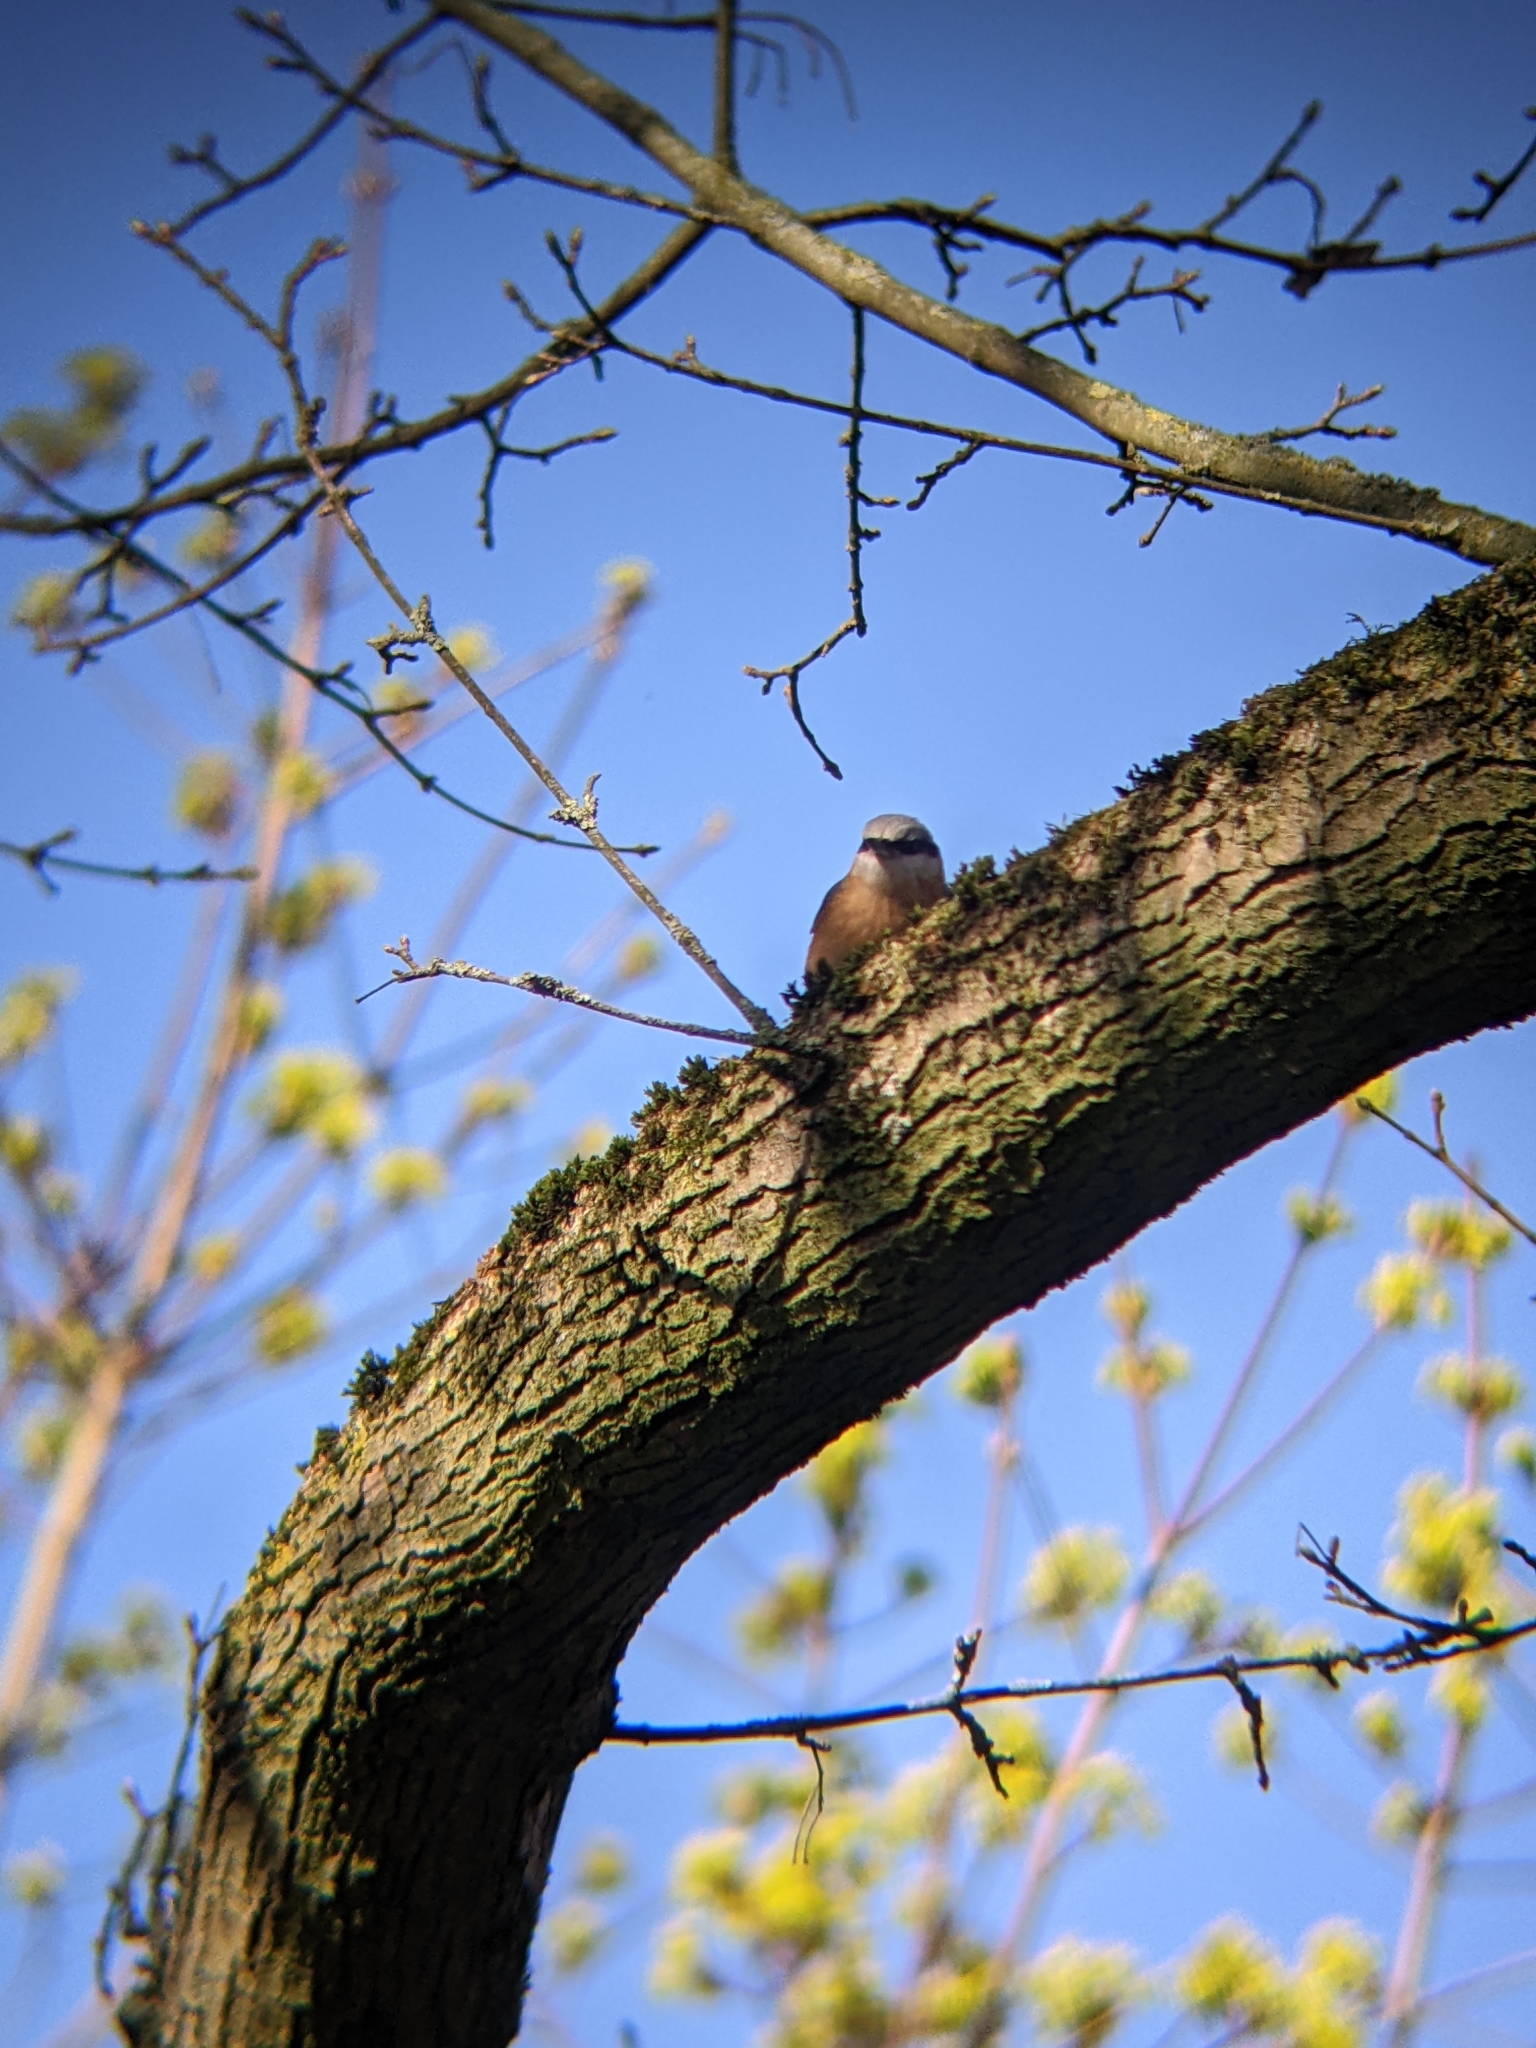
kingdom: Animalia
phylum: Chordata
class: Aves
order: Passeriformes
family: Sittidae
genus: Sitta
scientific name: Sitta europaea
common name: Eurasian nuthatch
